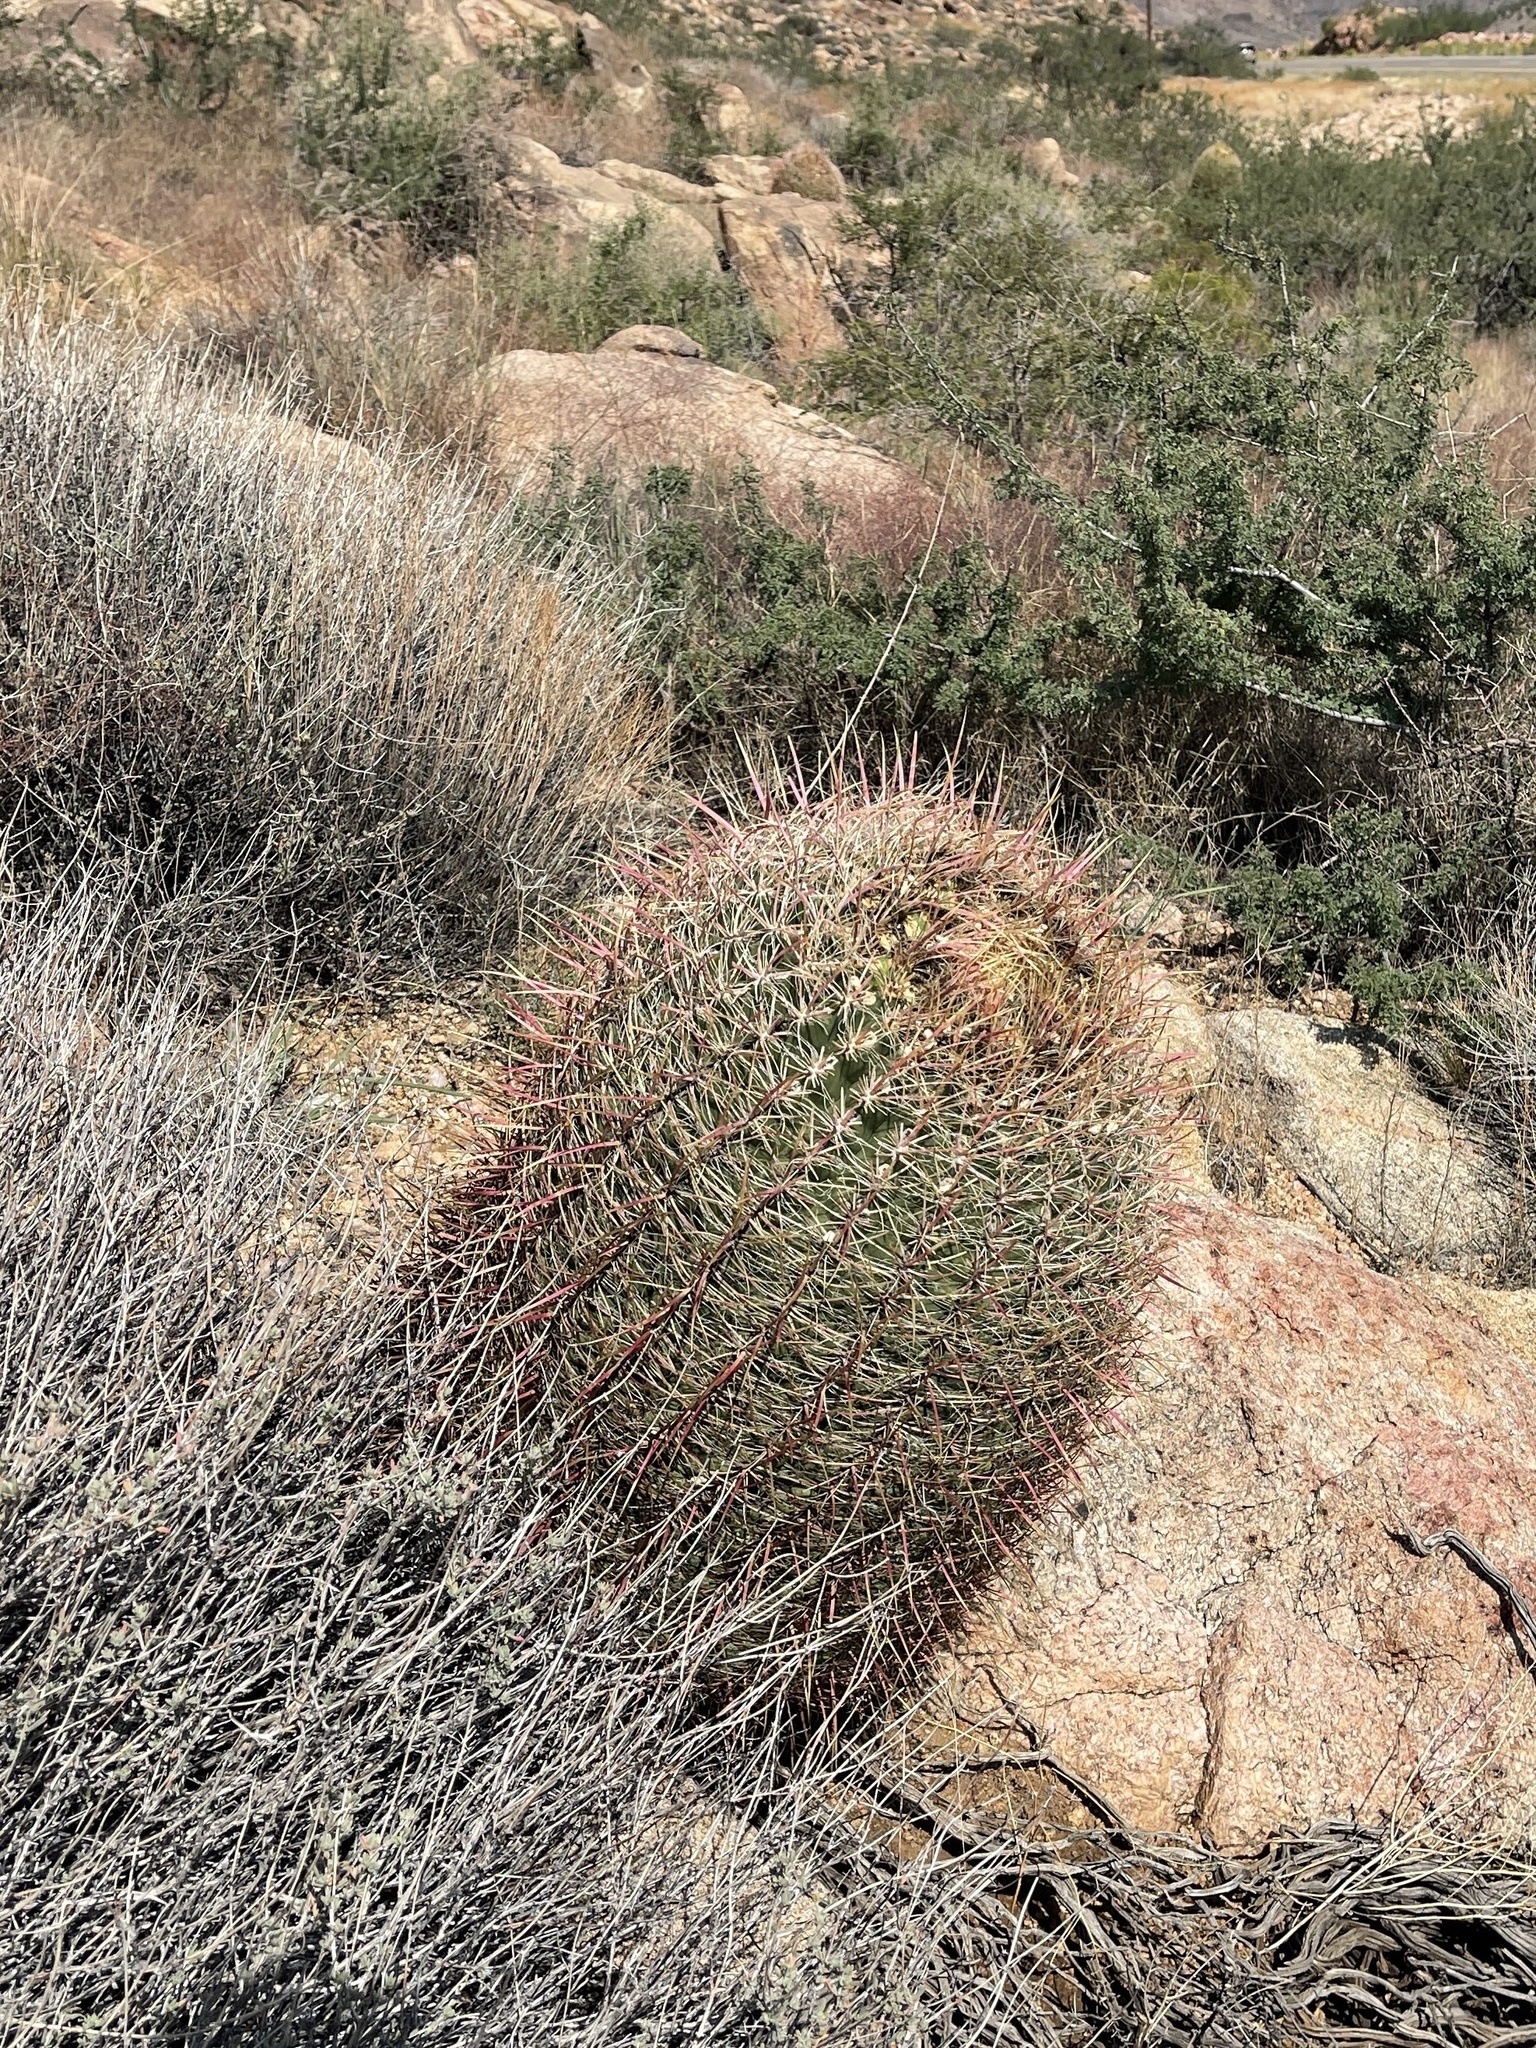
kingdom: Plantae
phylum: Tracheophyta
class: Magnoliopsida
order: Caryophyllales
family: Cactaceae
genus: Ferocactus
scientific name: Ferocactus cylindraceus
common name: California barrel cactus
